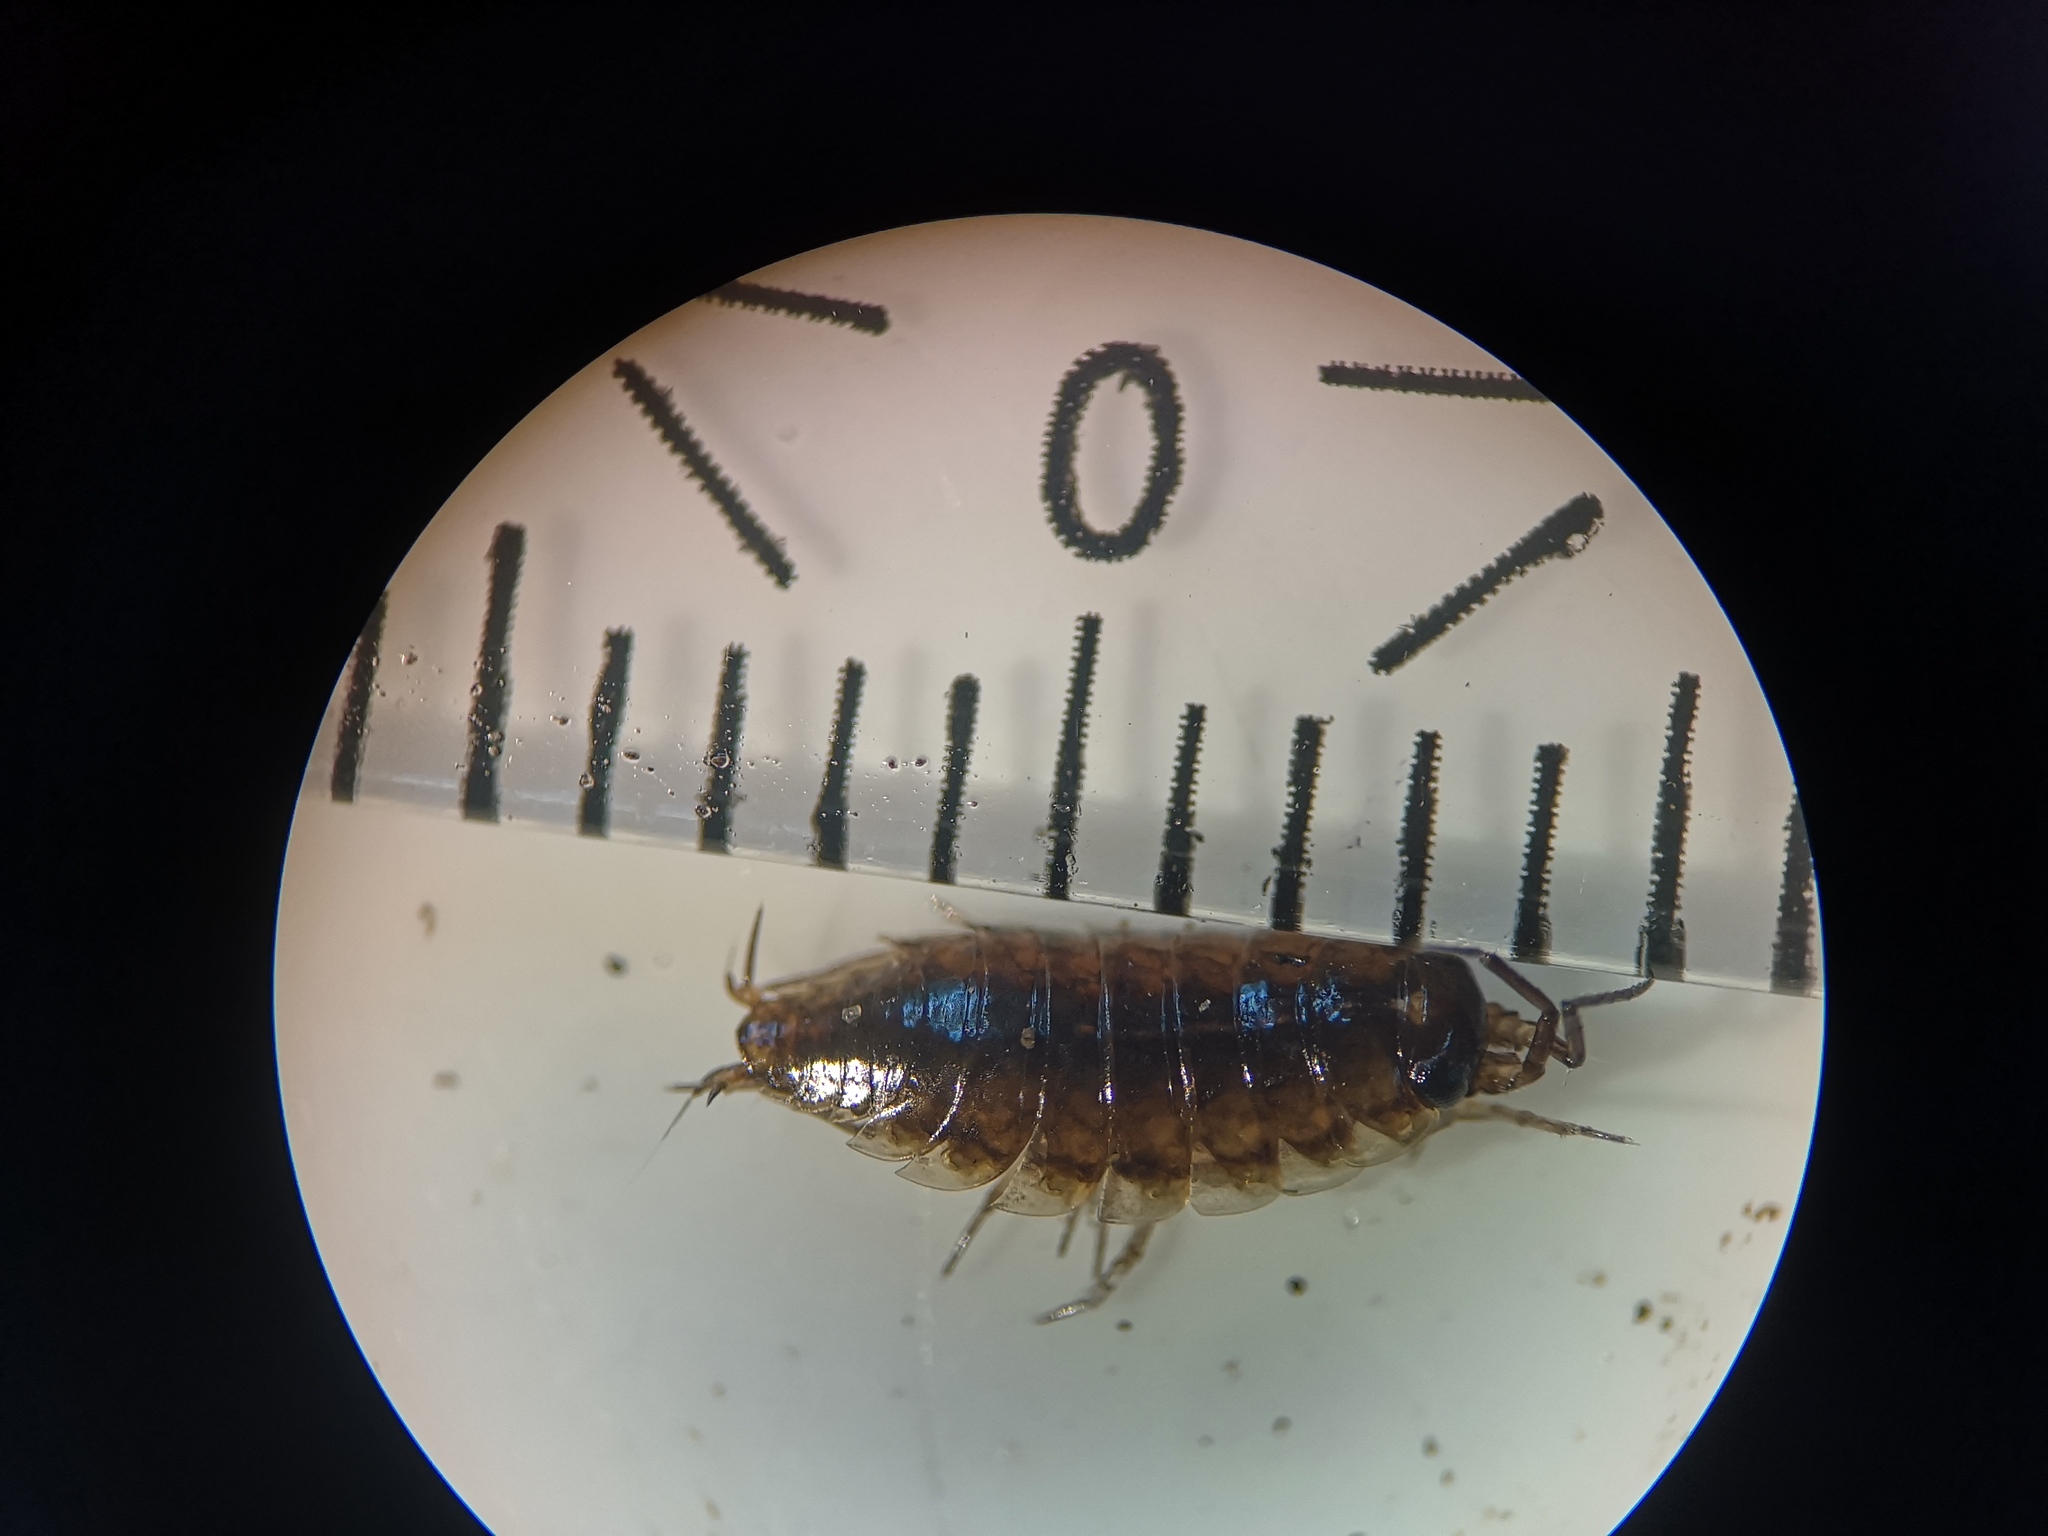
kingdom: Animalia
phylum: Arthropoda
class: Malacostraca
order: Isopoda
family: Ligiidae
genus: Ligidium
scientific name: Ligidium hypnorum
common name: Moss slater
